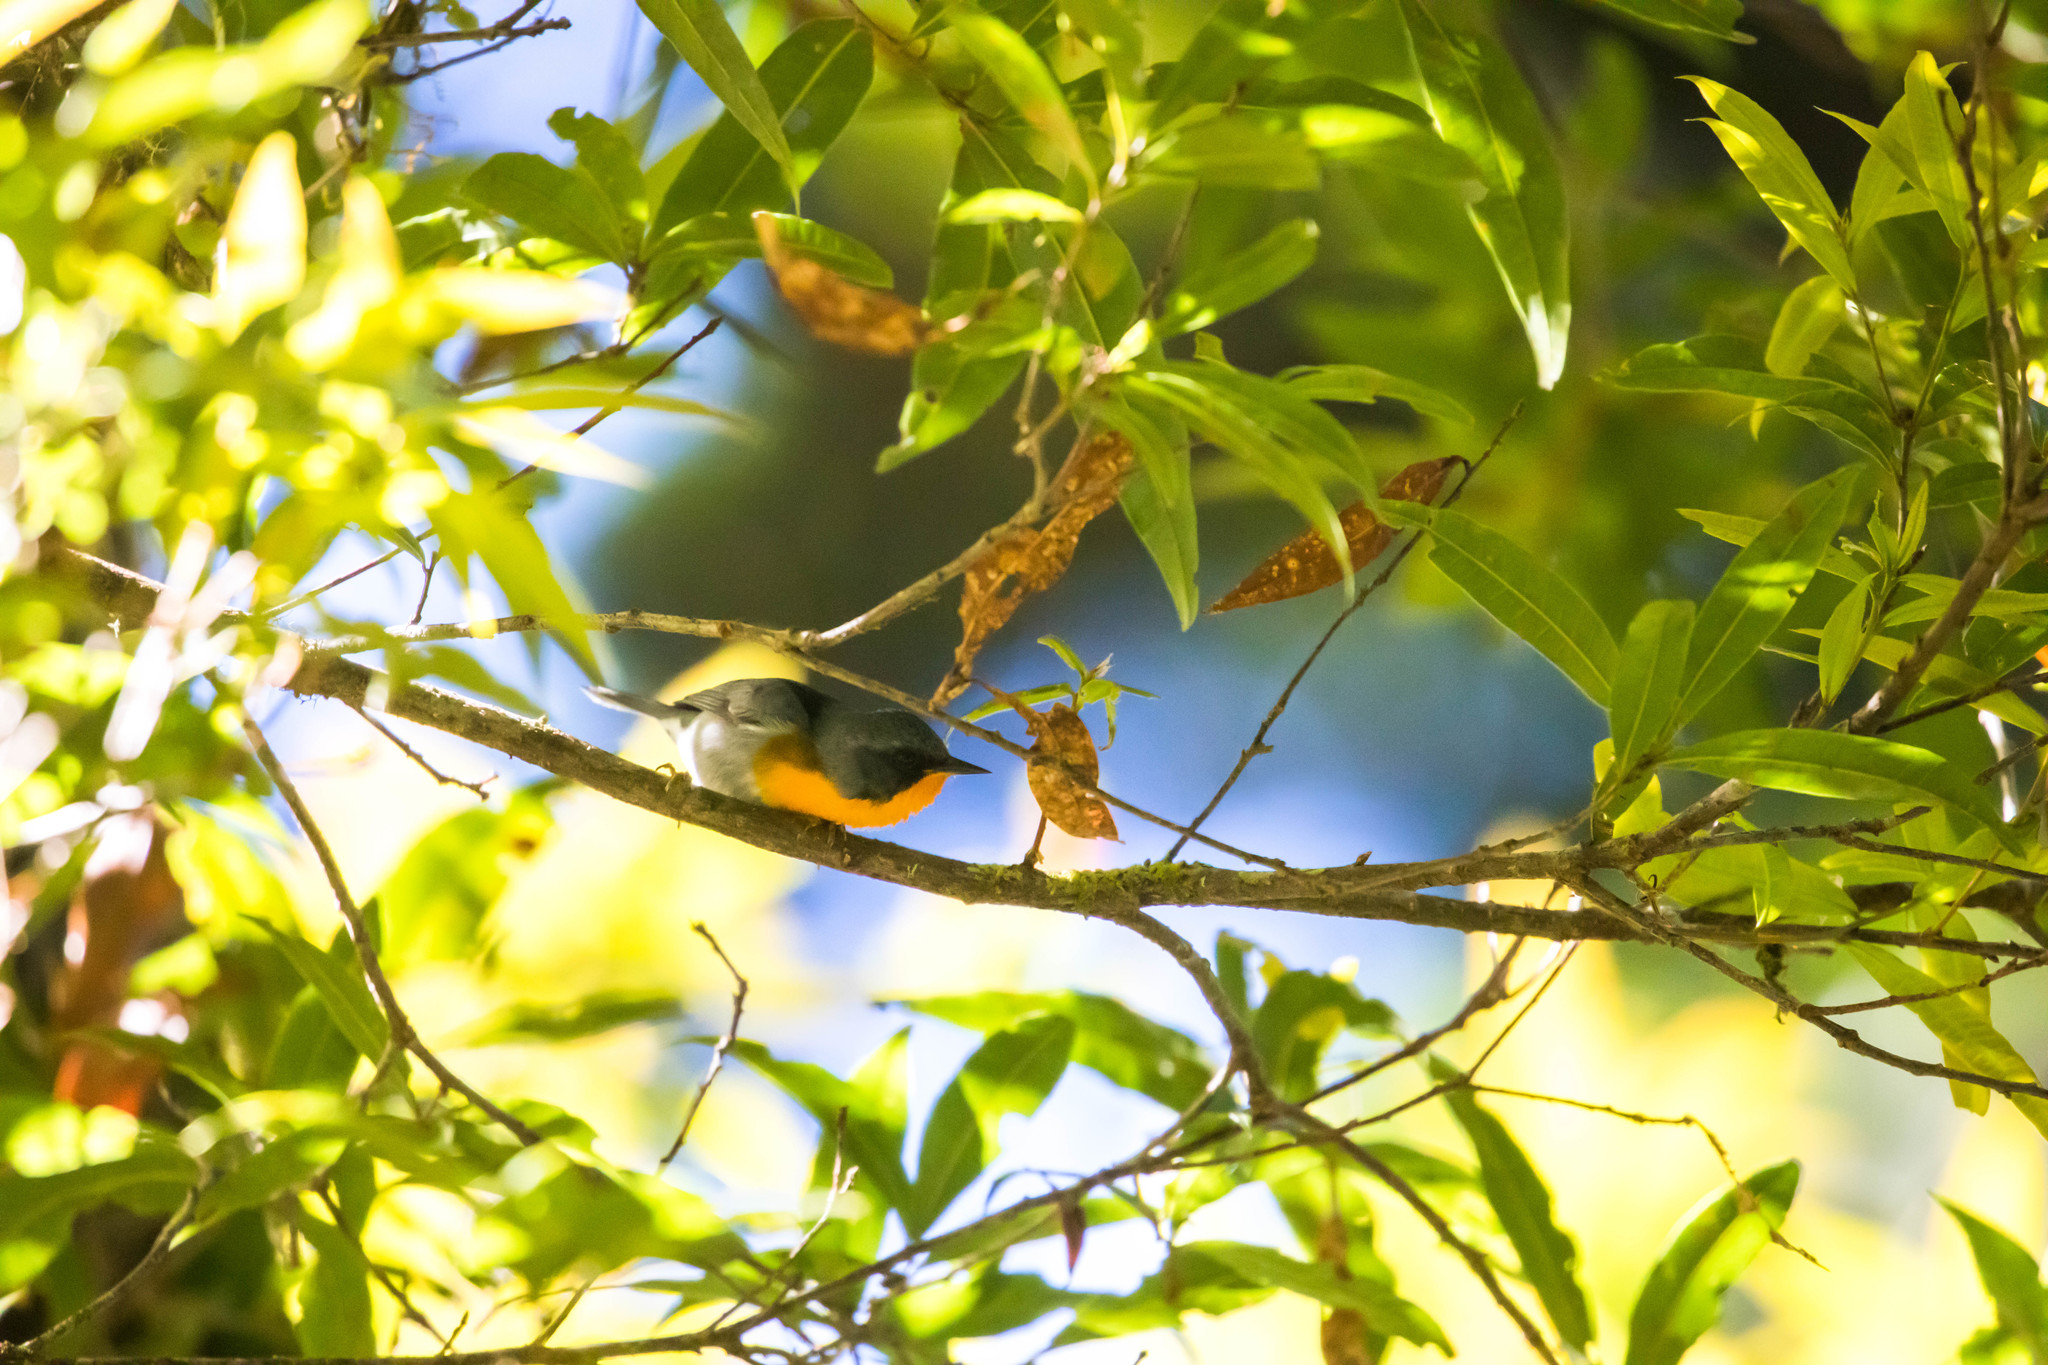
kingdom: Animalia
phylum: Chordata
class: Aves
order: Passeriformes
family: Parulidae
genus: Oreothlypis
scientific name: Oreothlypis gutturalis
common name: Flame-throated warbler
